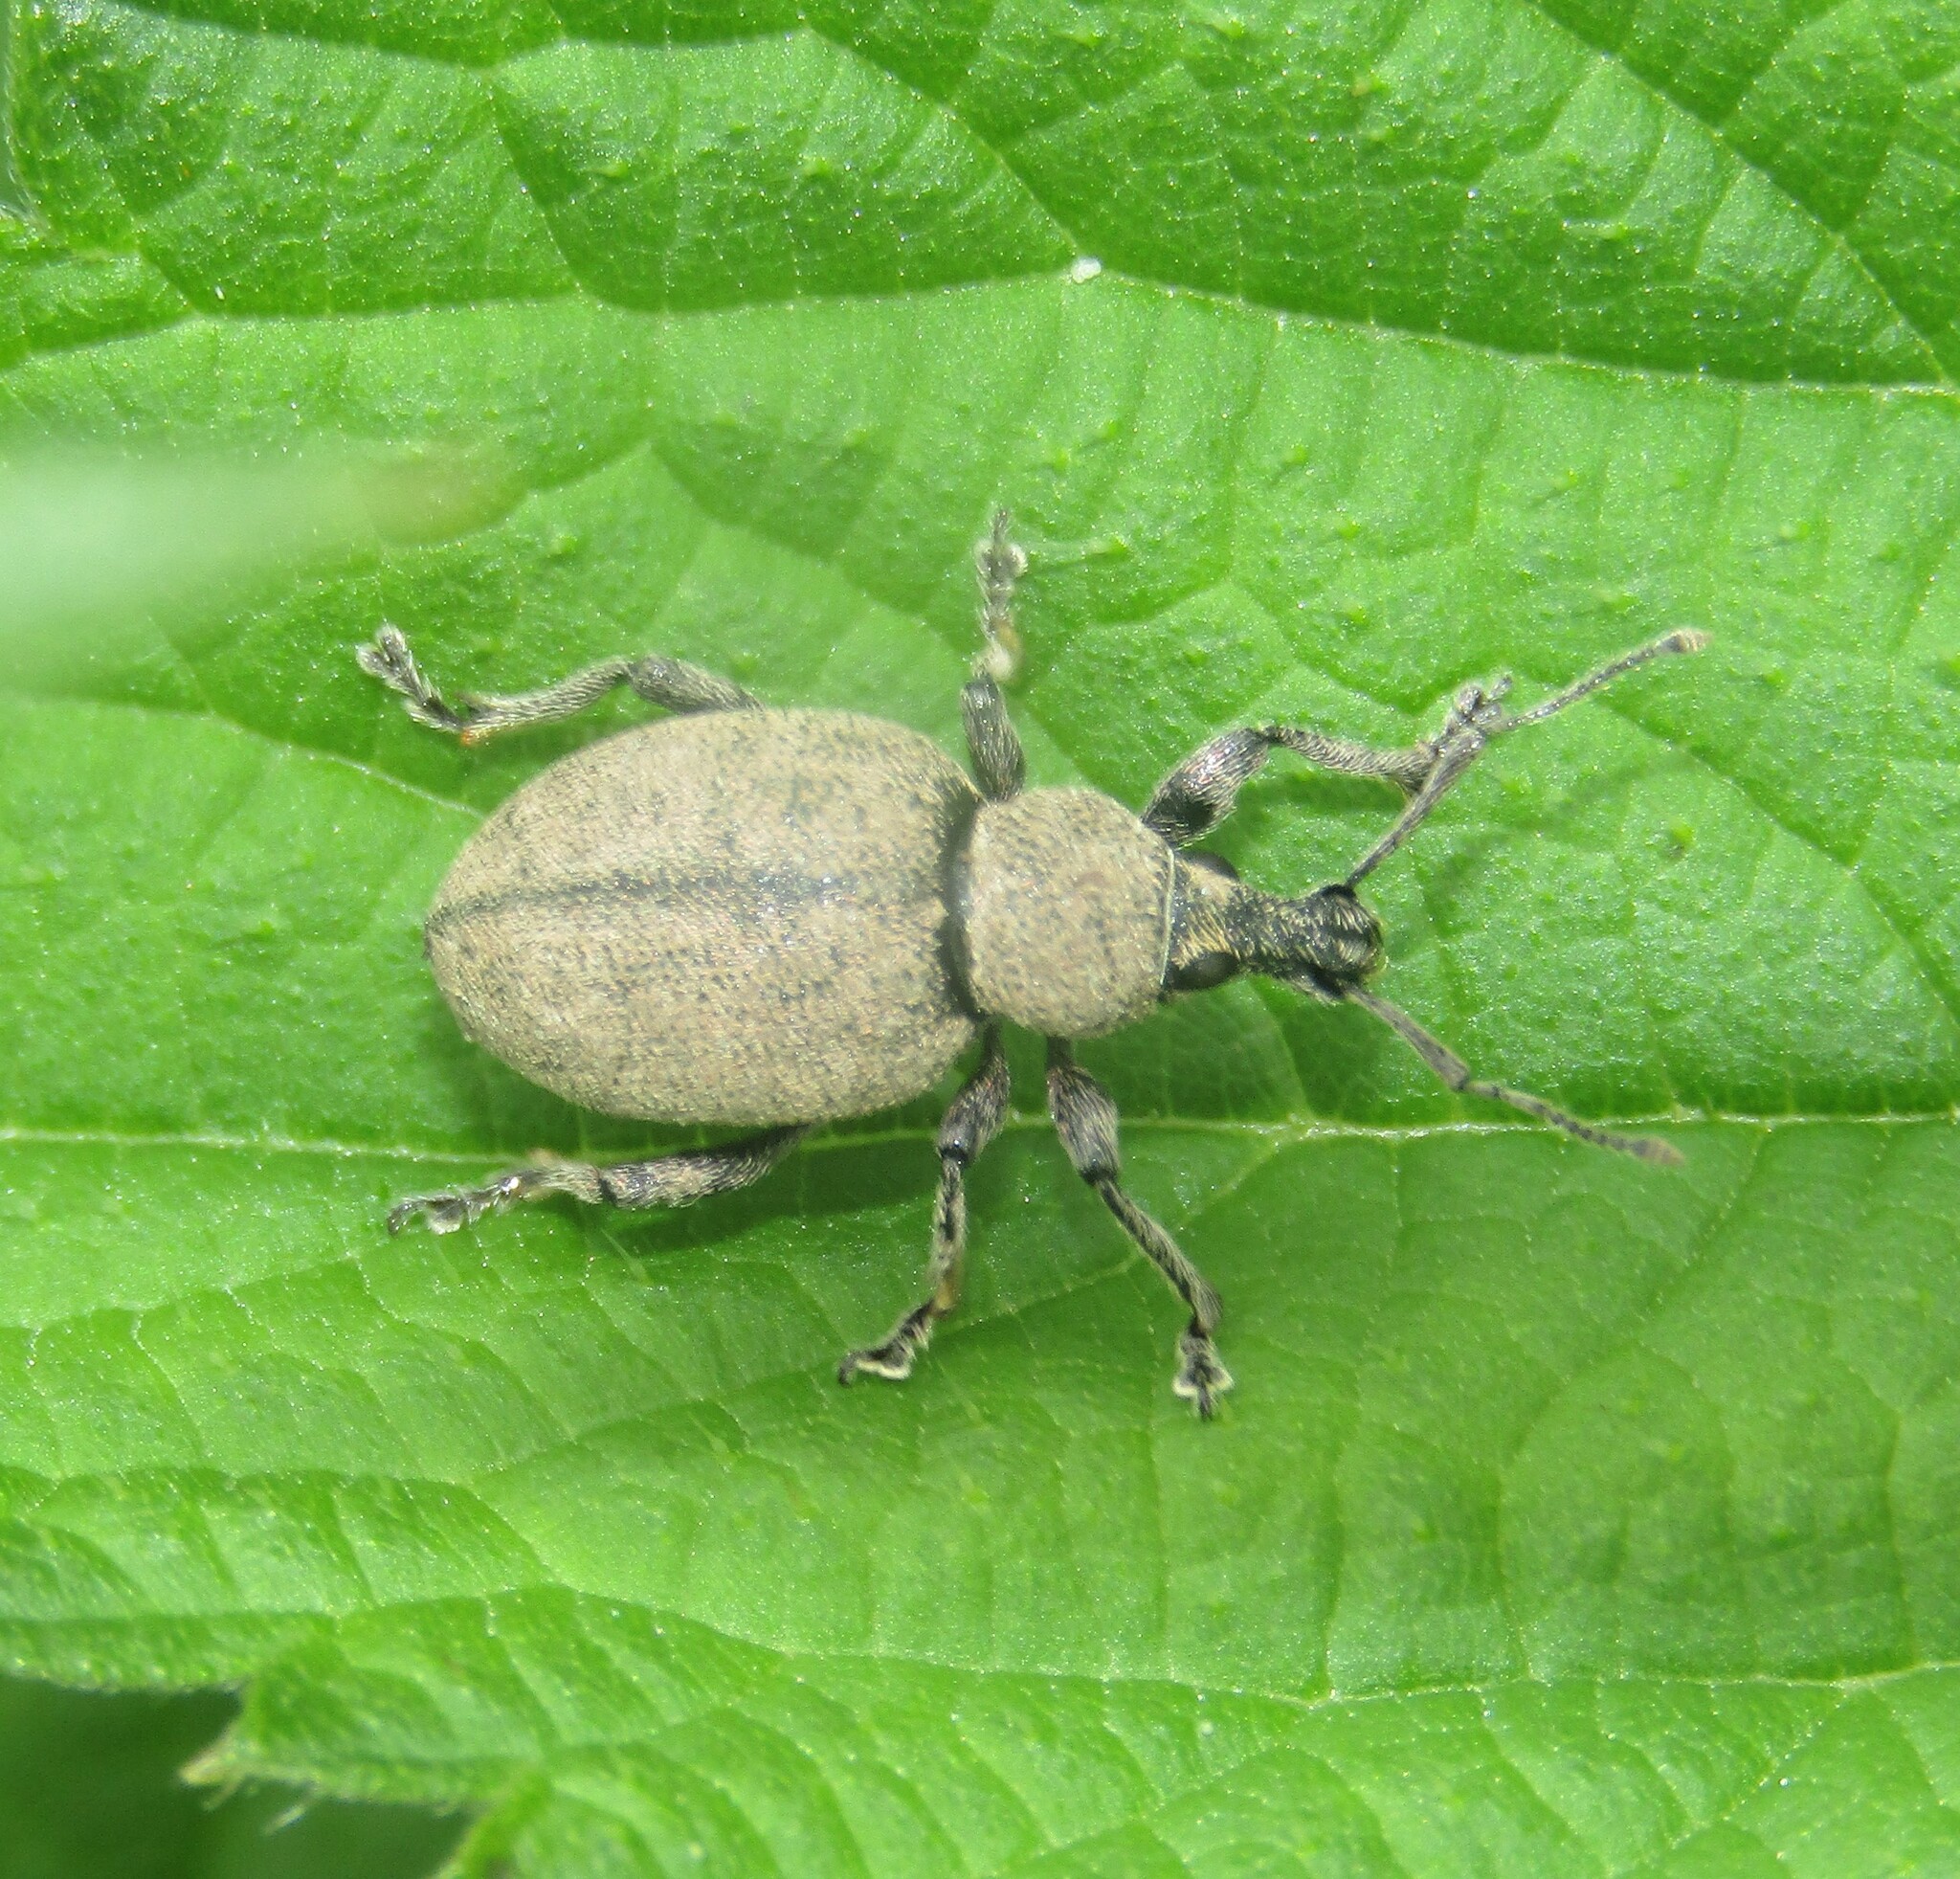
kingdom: Animalia
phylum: Arthropoda
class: Insecta
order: Coleoptera
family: Curculionidae
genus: Otiorhynchus
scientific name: Otiorhynchus ligustici
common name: Weevil
